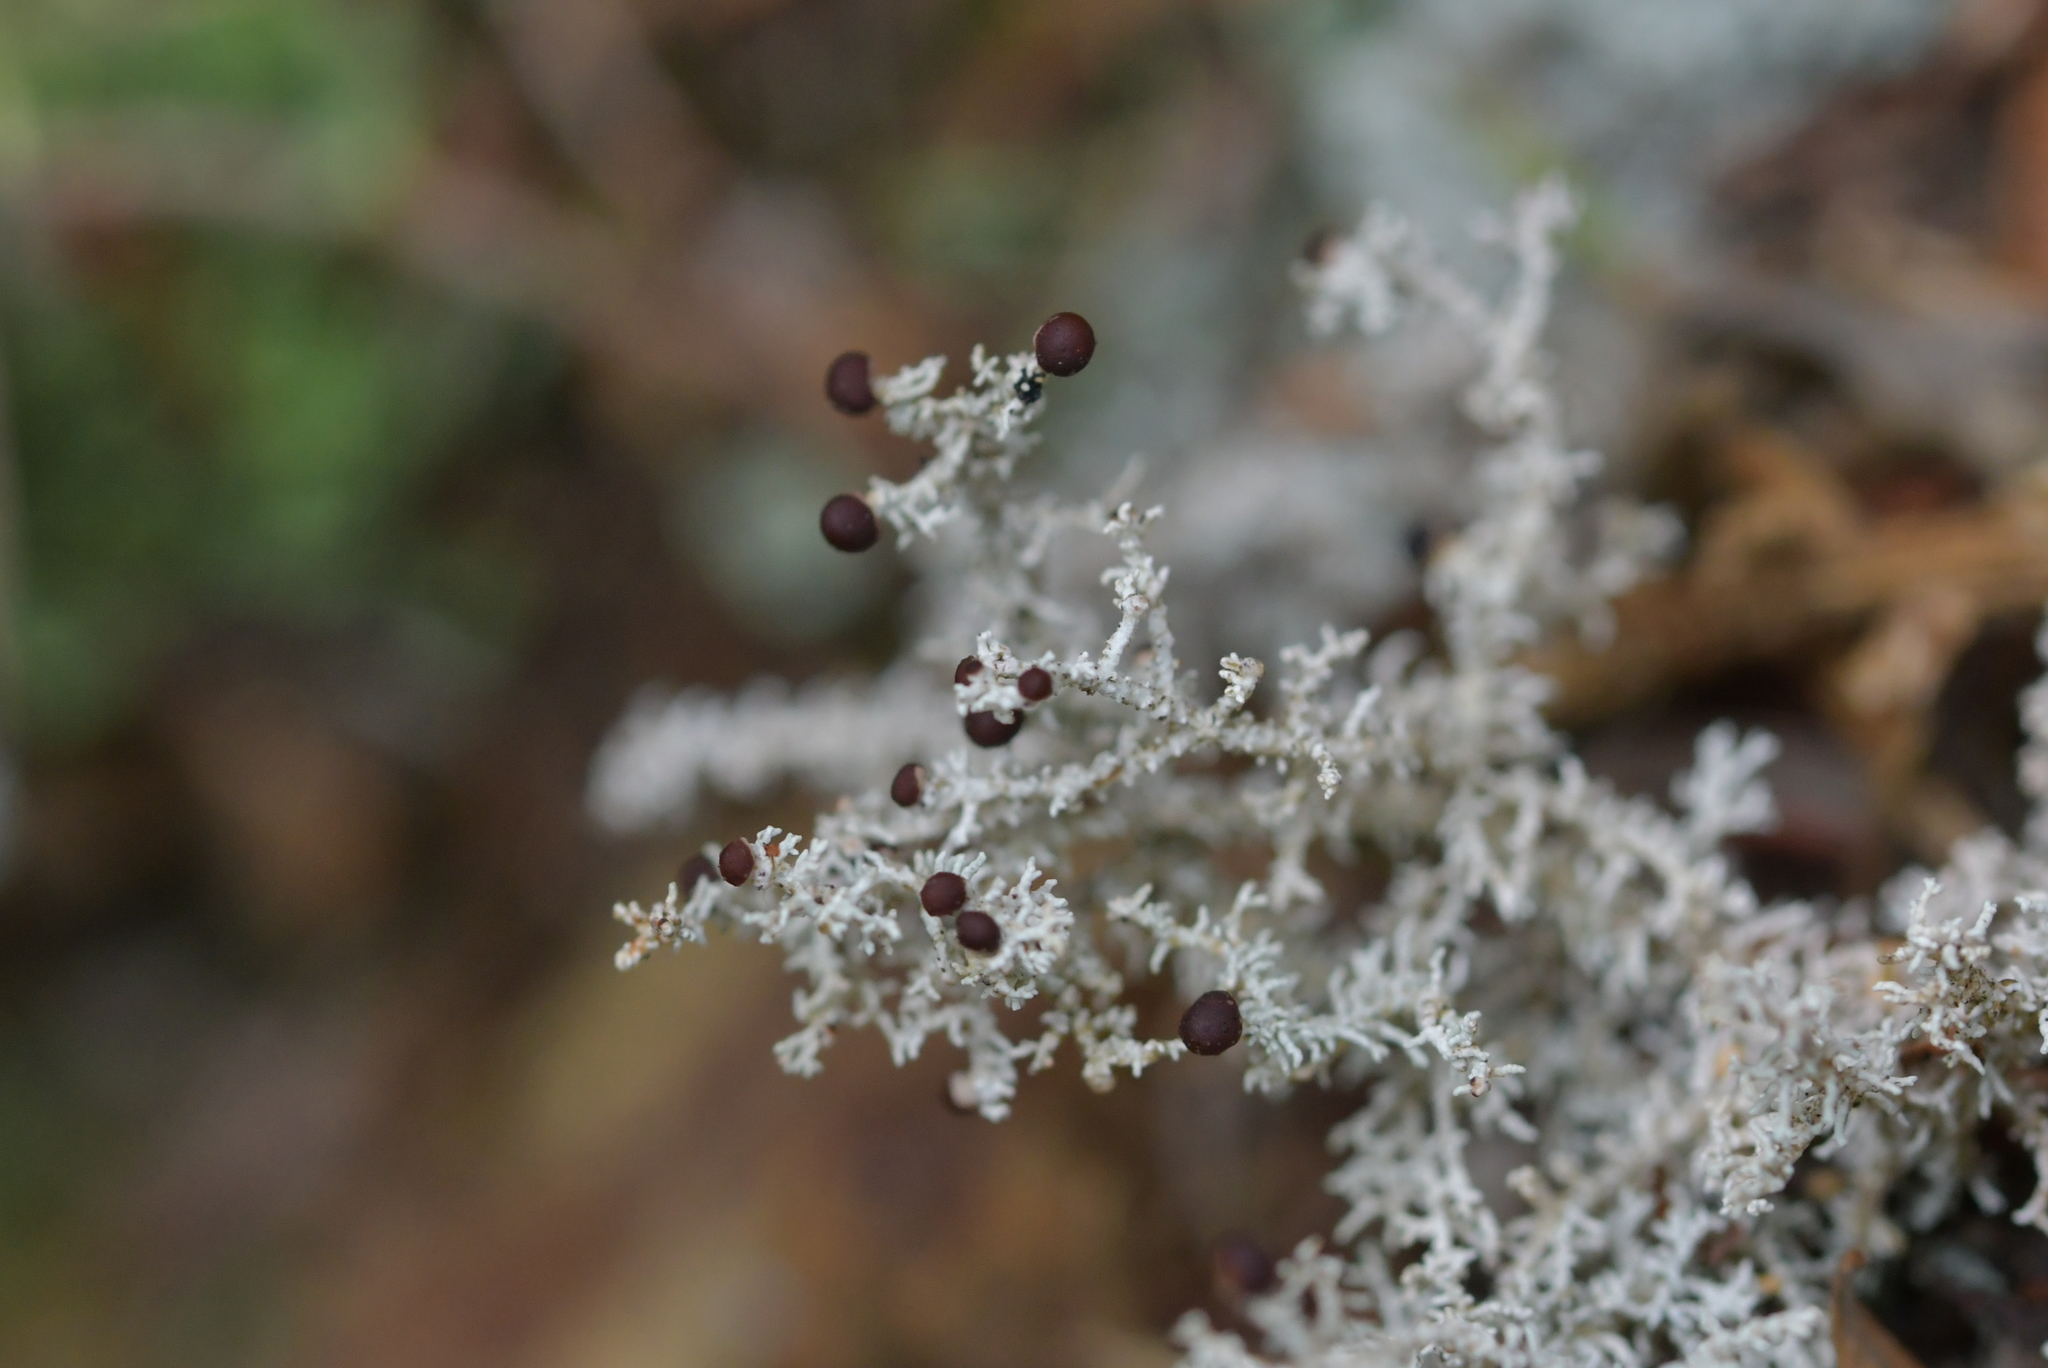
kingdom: Fungi
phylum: Ascomycota
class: Lecanoromycetes
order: Lecanorales
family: Stereocaulaceae
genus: Stereocaulon
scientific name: Stereocaulon ramulosum
